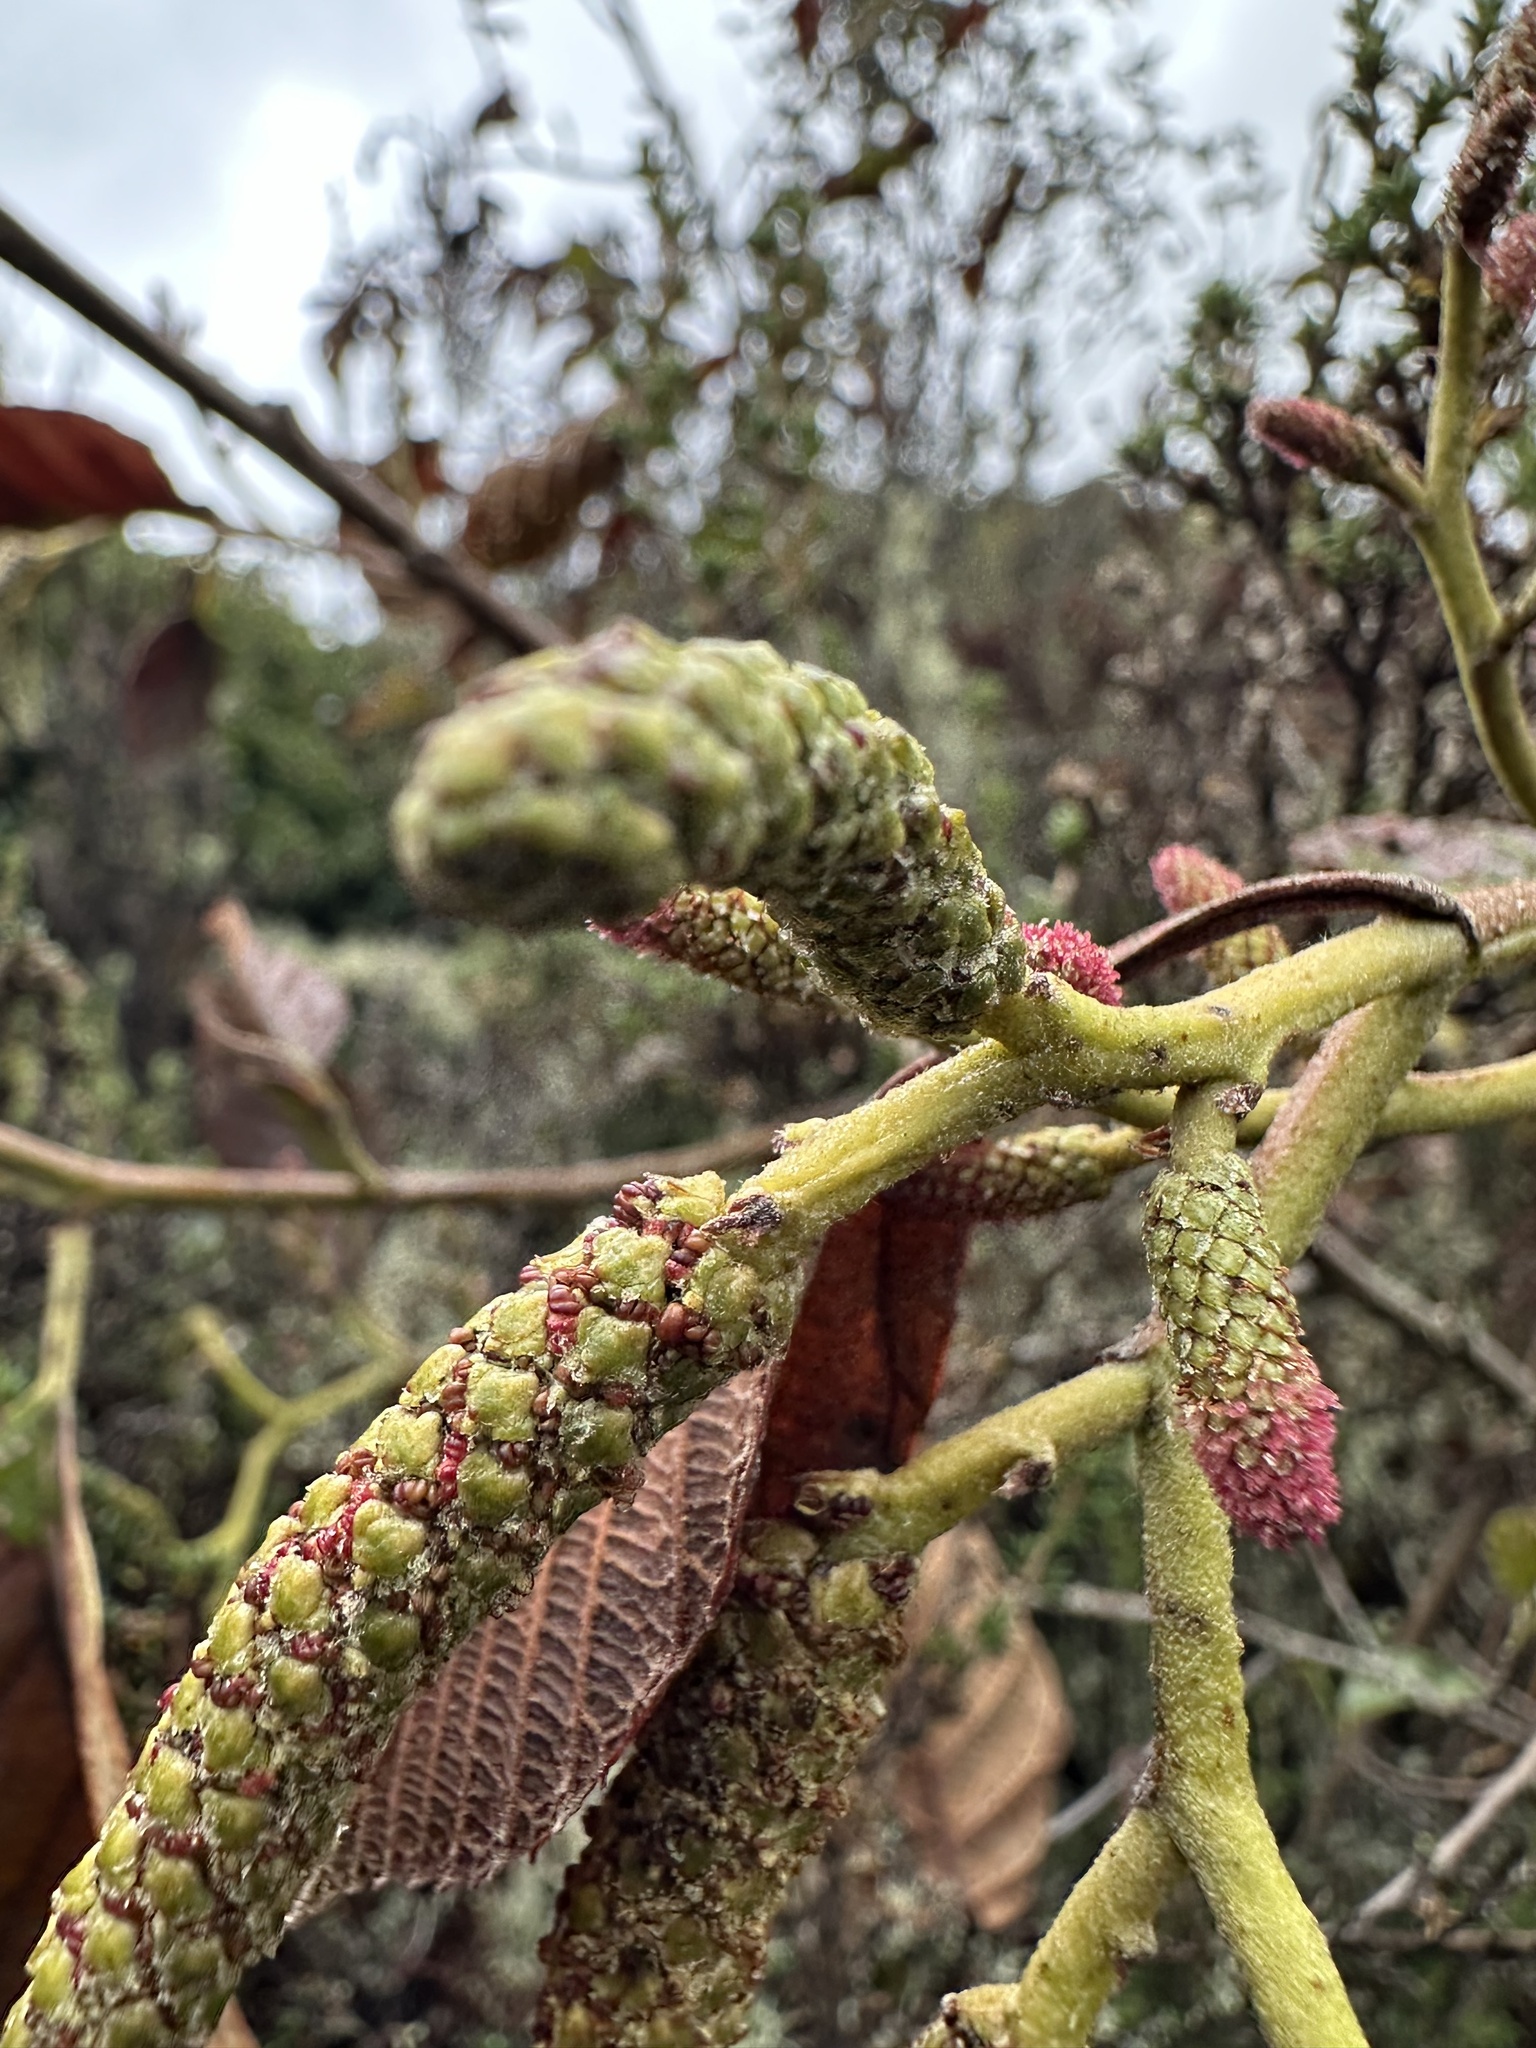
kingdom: Plantae
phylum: Tracheophyta
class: Magnoliopsida
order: Fagales
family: Betulaceae
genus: Alnus
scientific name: Alnus acuminata
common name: Alder
